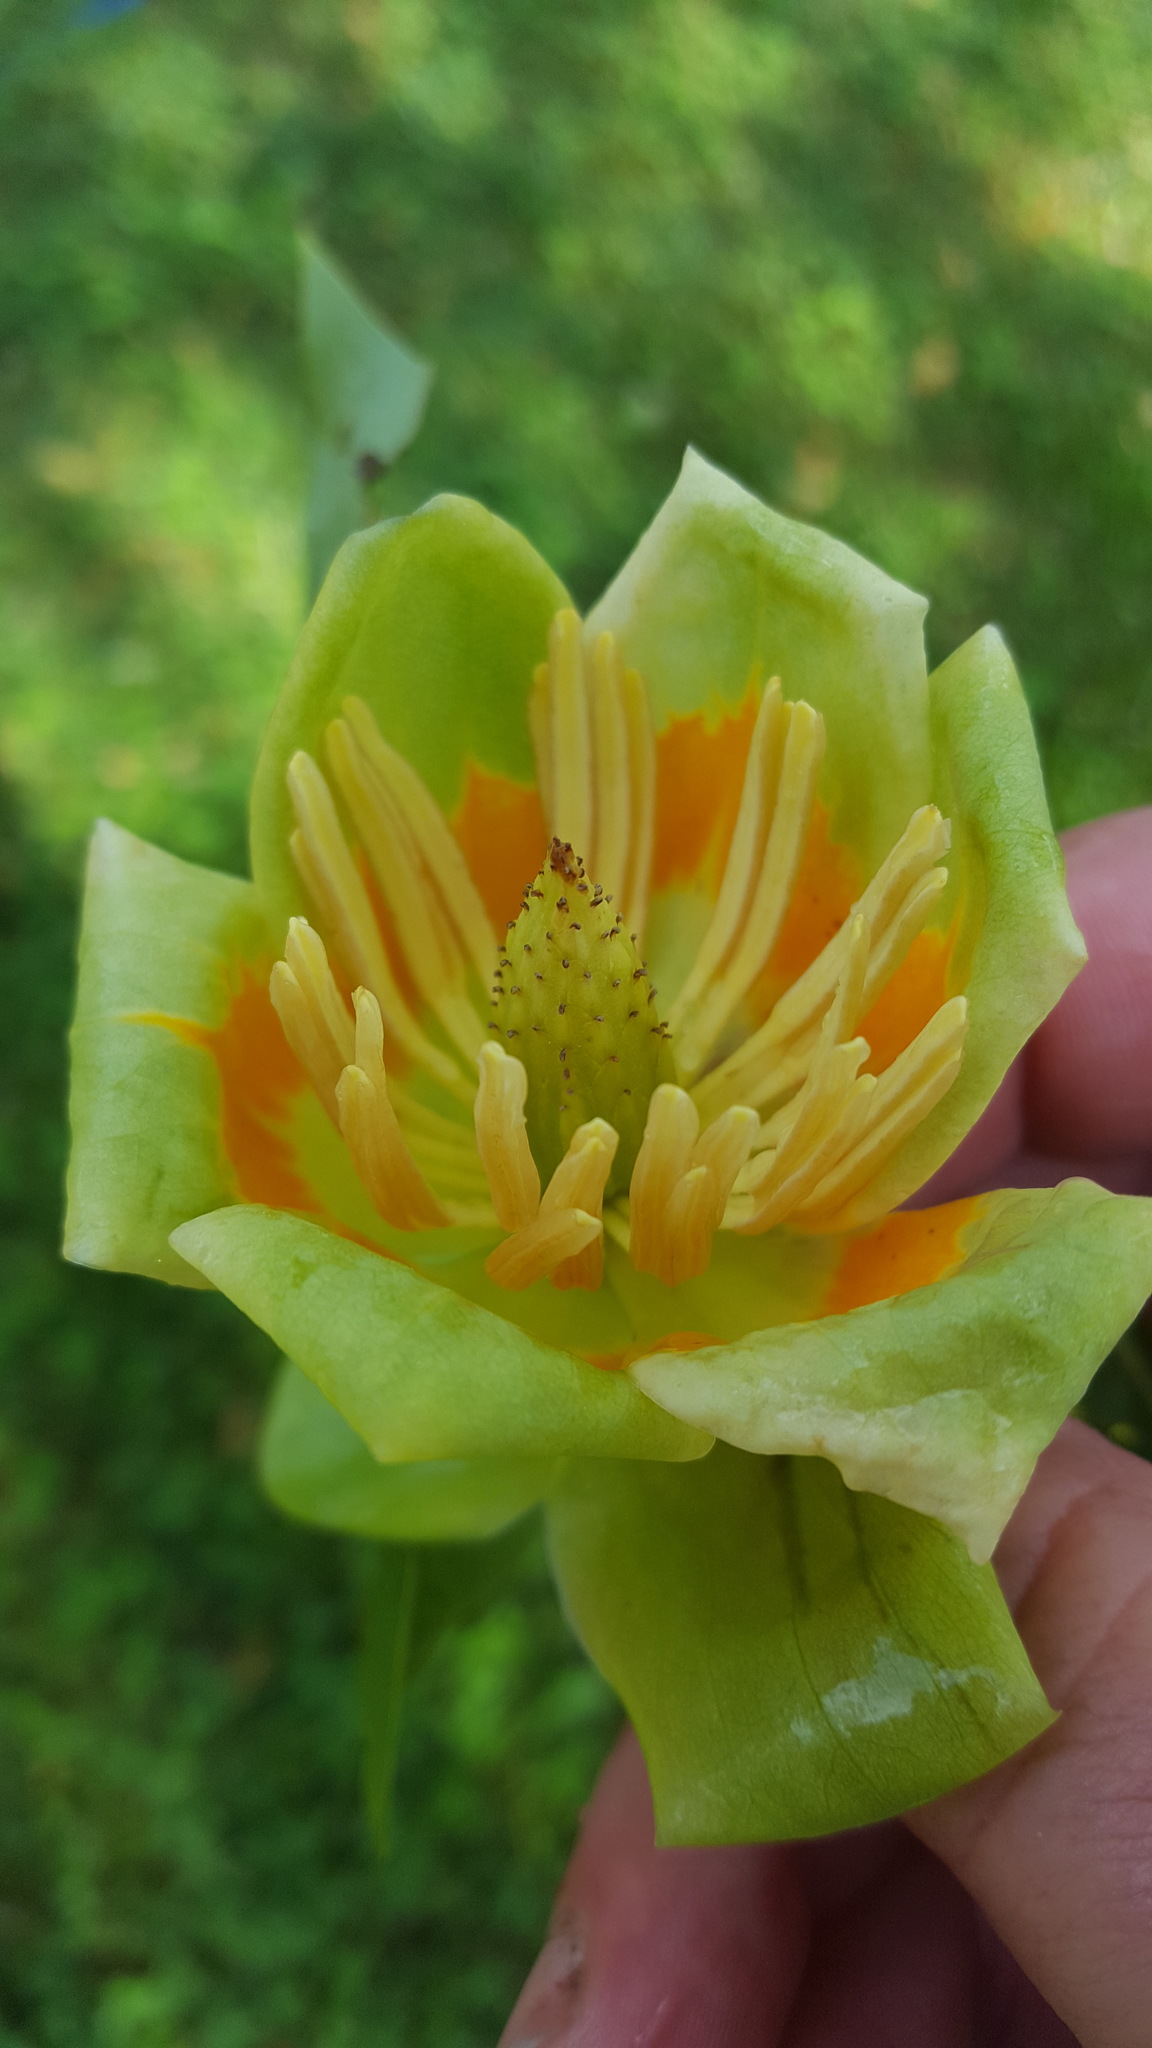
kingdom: Plantae
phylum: Tracheophyta
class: Magnoliopsida
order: Magnoliales
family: Magnoliaceae
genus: Liriodendron
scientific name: Liriodendron tulipifera
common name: Tulip tree
